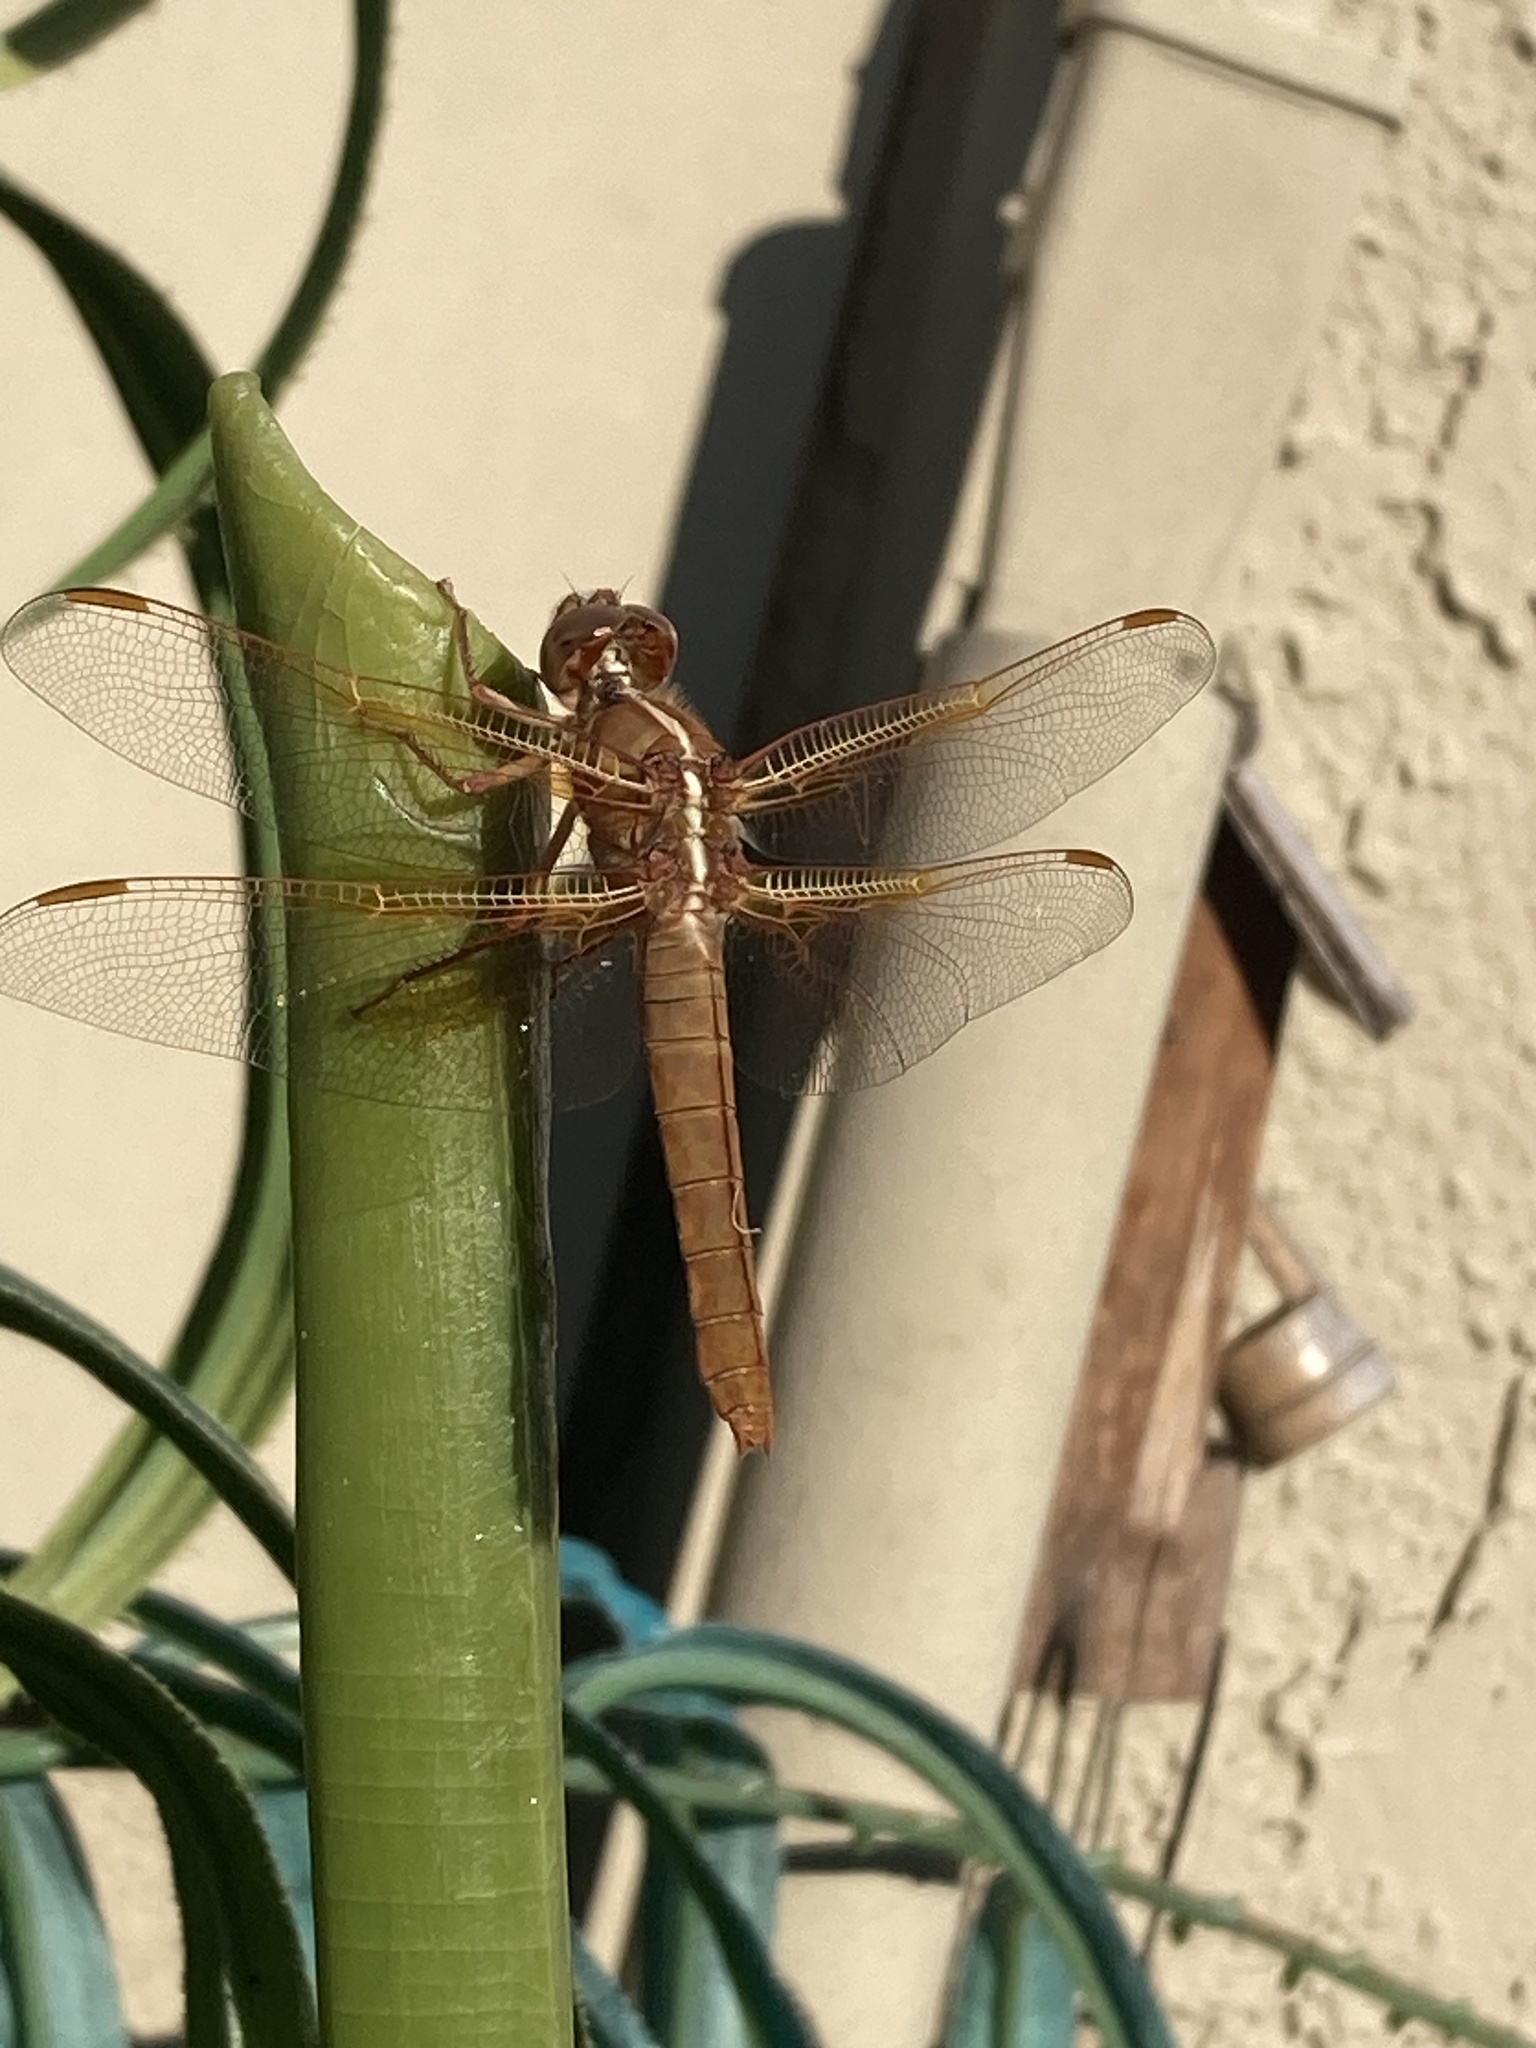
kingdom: Animalia
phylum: Arthropoda
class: Insecta
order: Odonata
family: Libellulidae
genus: Libellula
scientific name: Libellula saturata
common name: Flame skimmer
